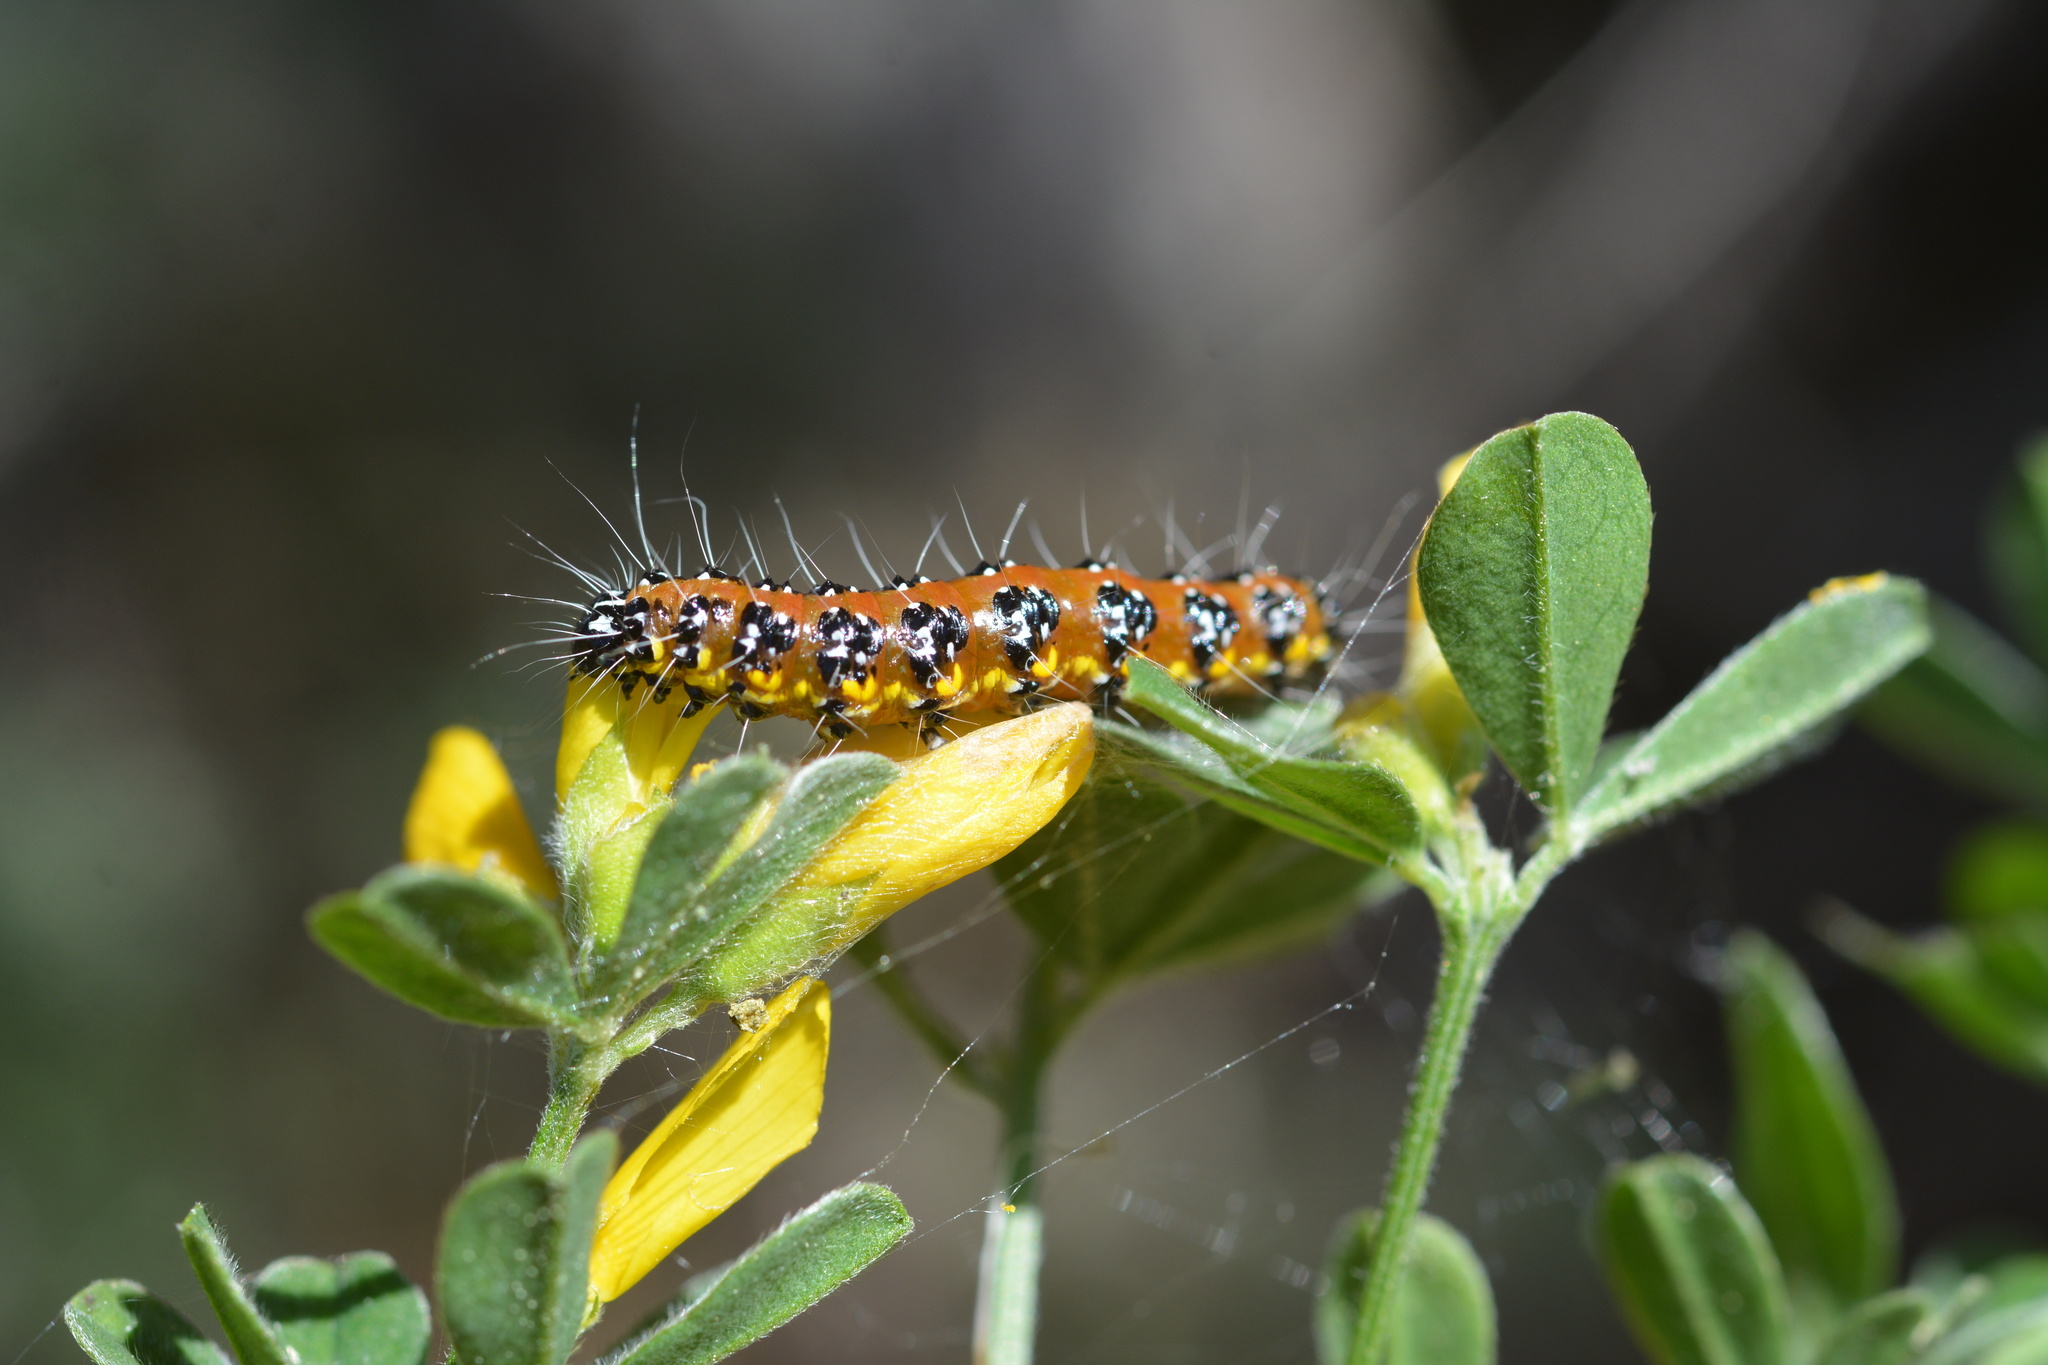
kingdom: Animalia
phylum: Arthropoda
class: Insecta
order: Lepidoptera
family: Crambidae
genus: Uresiphita
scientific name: Uresiphita reversalis
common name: Genista broom moth
